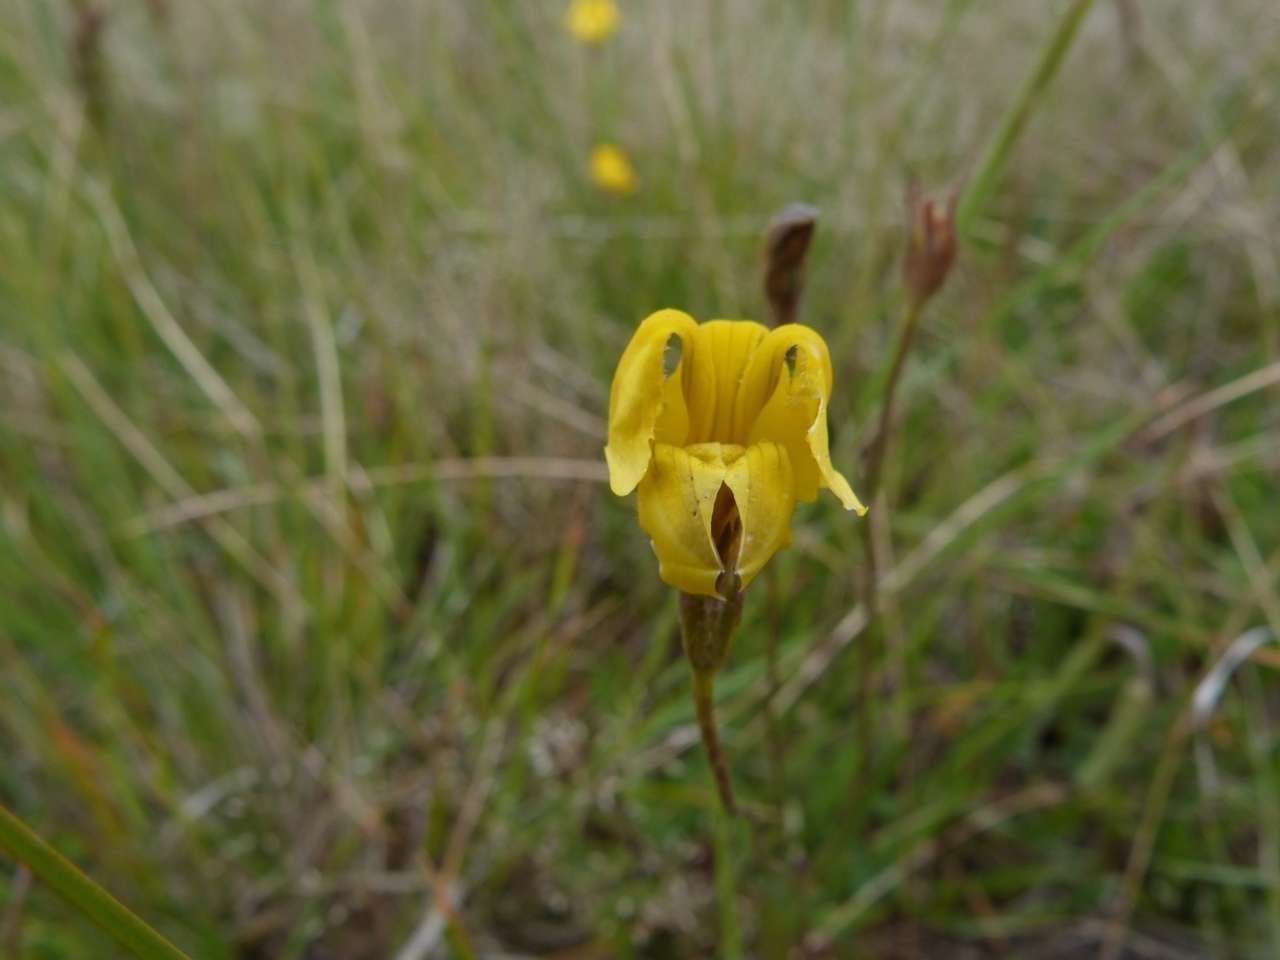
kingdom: Plantae
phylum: Tracheophyta
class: Magnoliopsida
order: Asterales
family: Goodeniaceae
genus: Goodenia
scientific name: Goodenia pinnatifida
